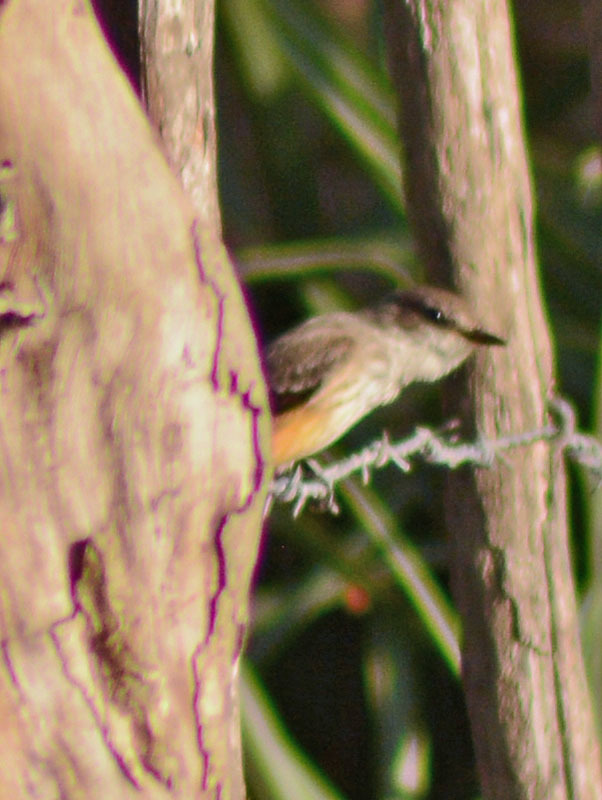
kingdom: Animalia
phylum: Chordata
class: Aves
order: Passeriformes
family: Tyrannidae
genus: Pyrocephalus
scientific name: Pyrocephalus rubinus
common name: Vermilion flycatcher
